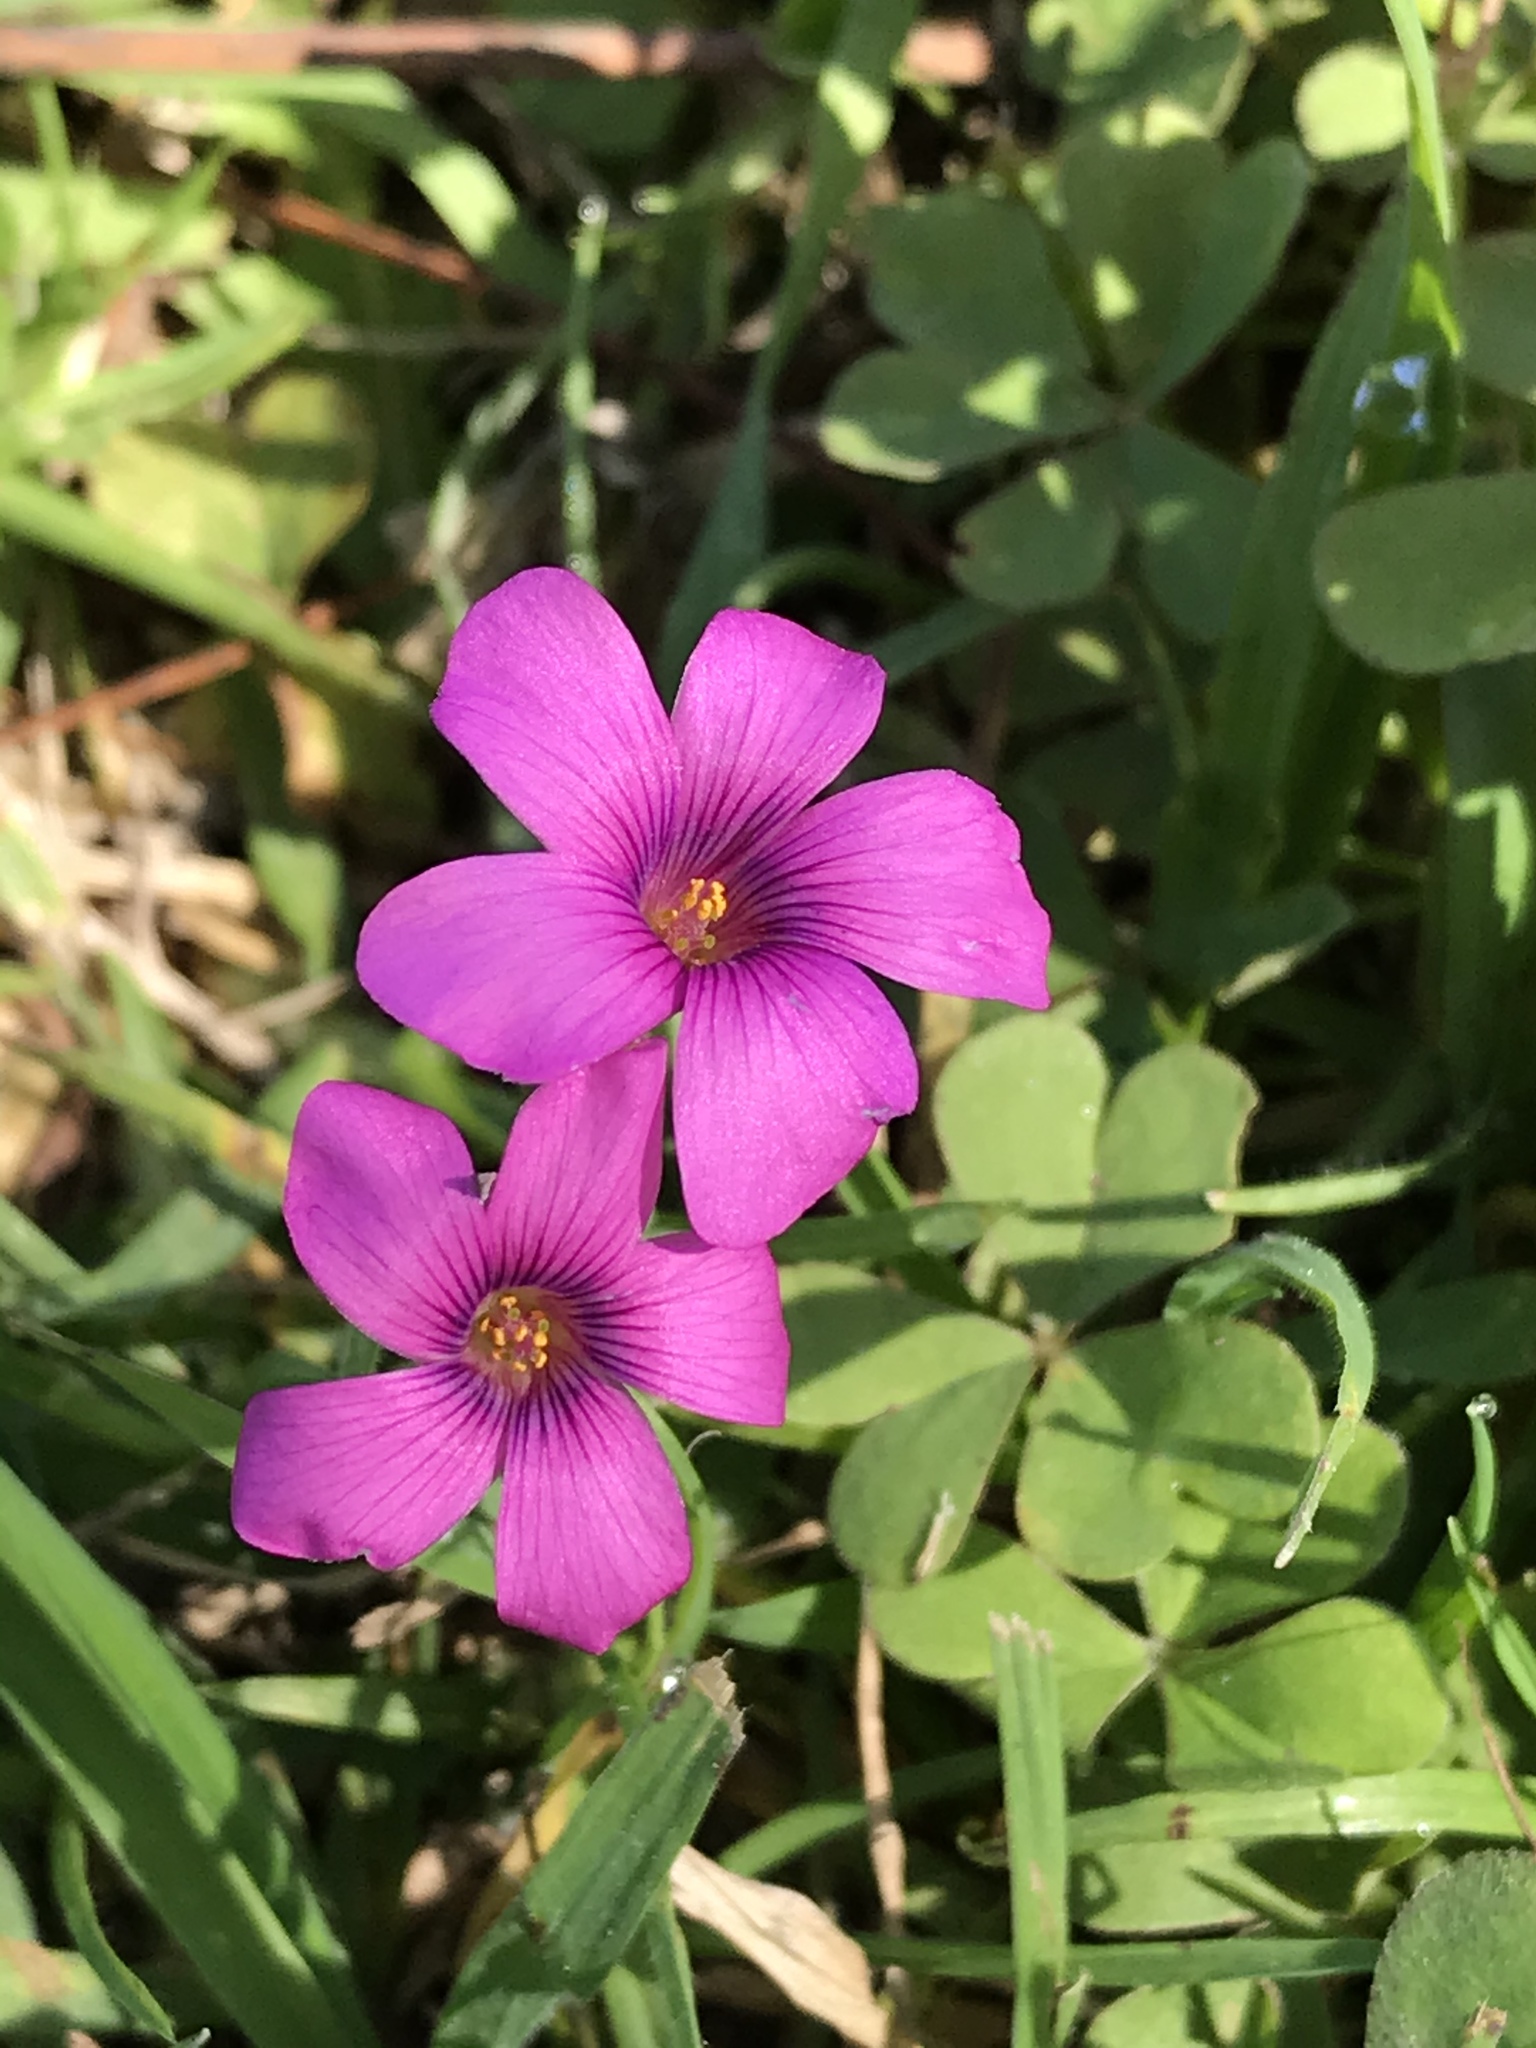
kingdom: Plantae
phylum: Tracheophyta
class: Magnoliopsida
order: Oxalidales
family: Oxalidaceae
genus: Oxalis
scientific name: Oxalis articulata
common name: Pink-sorrel
